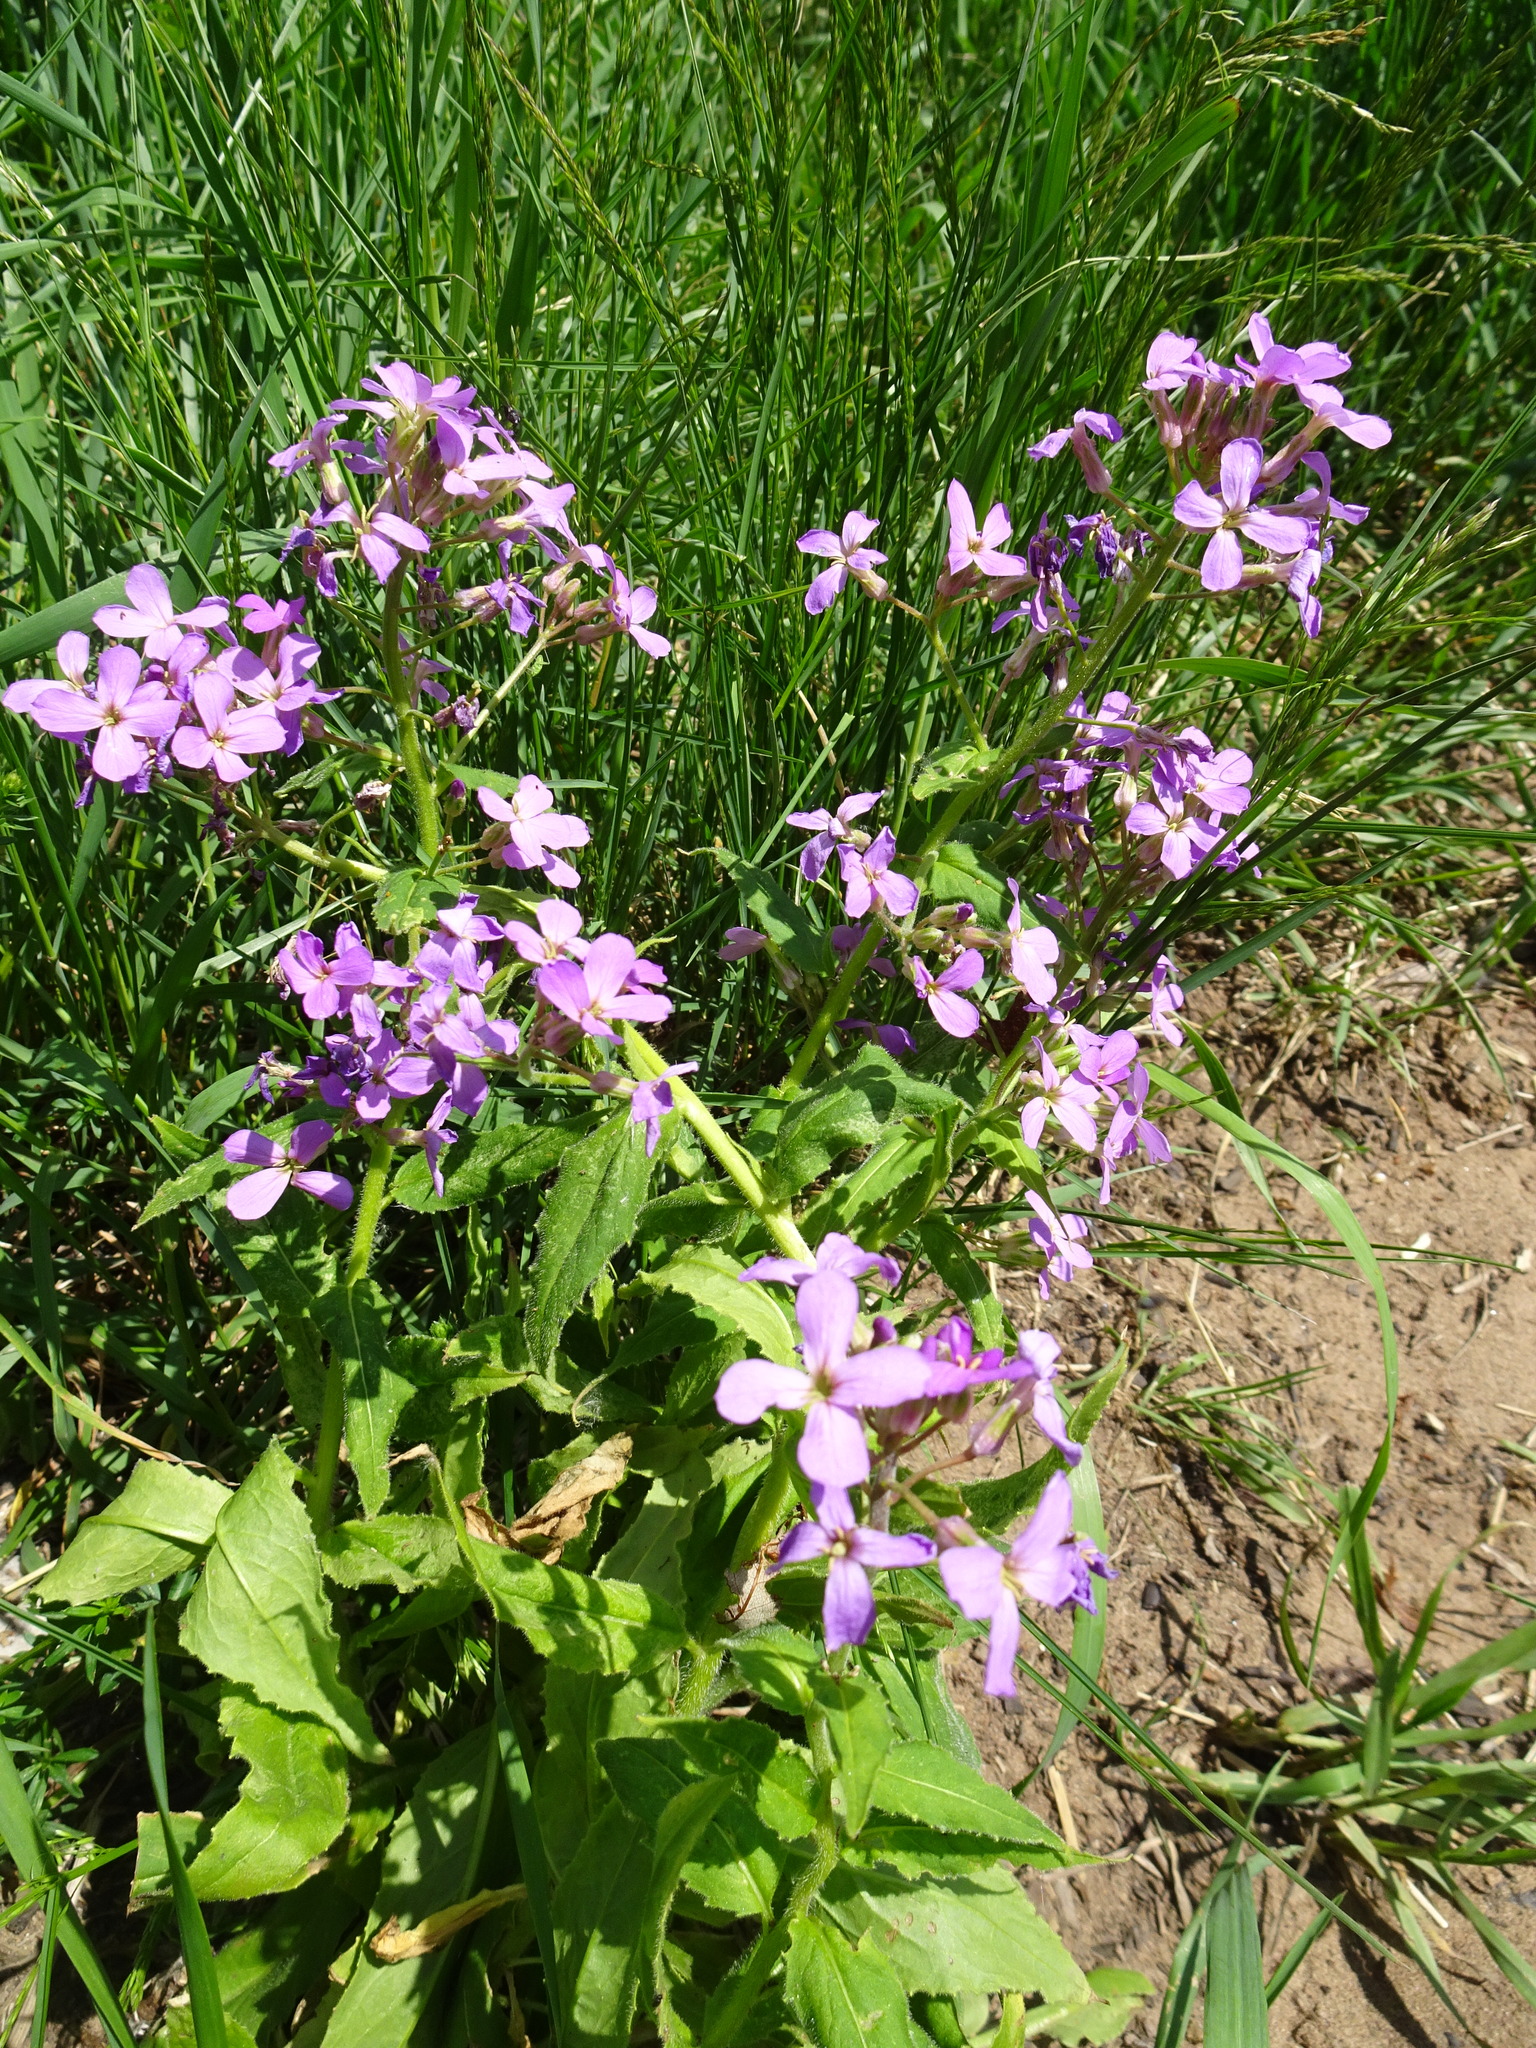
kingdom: Plantae
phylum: Tracheophyta
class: Magnoliopsida
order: Brassicales
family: Brassicaceae
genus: Hesperis
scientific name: Hesperis matronalis
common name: Dame's-violet
